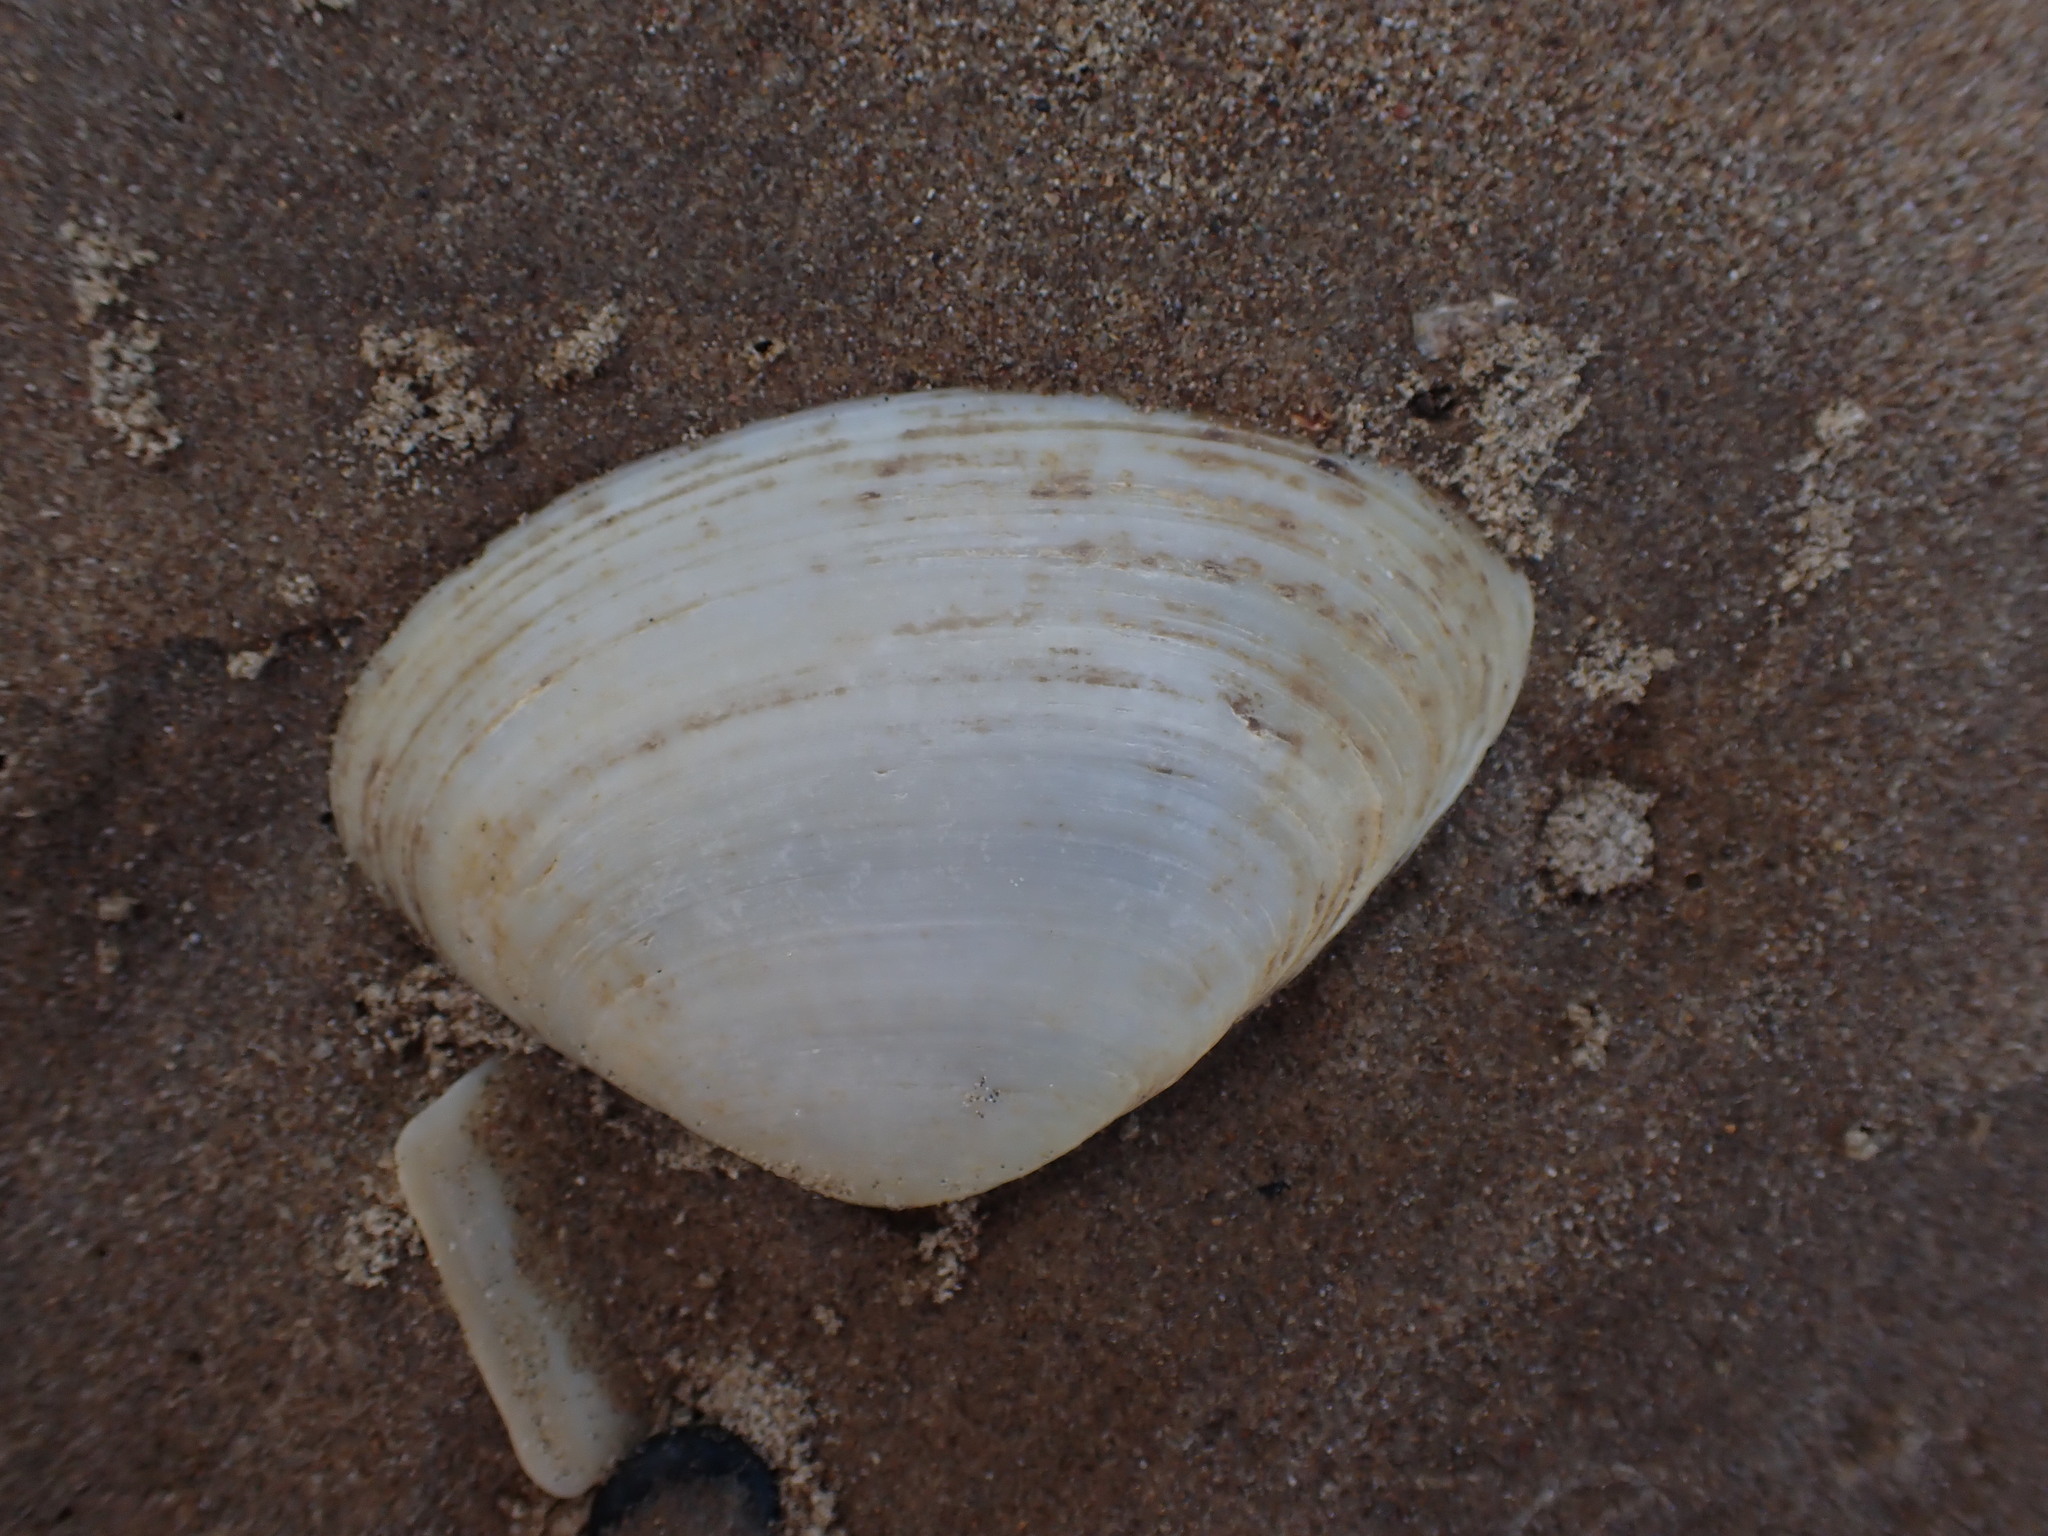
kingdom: Animalia
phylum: Mollusca
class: Bivalvia
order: Venerida
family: Mactridae
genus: Oxyperas
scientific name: Oxyperas elongatum
